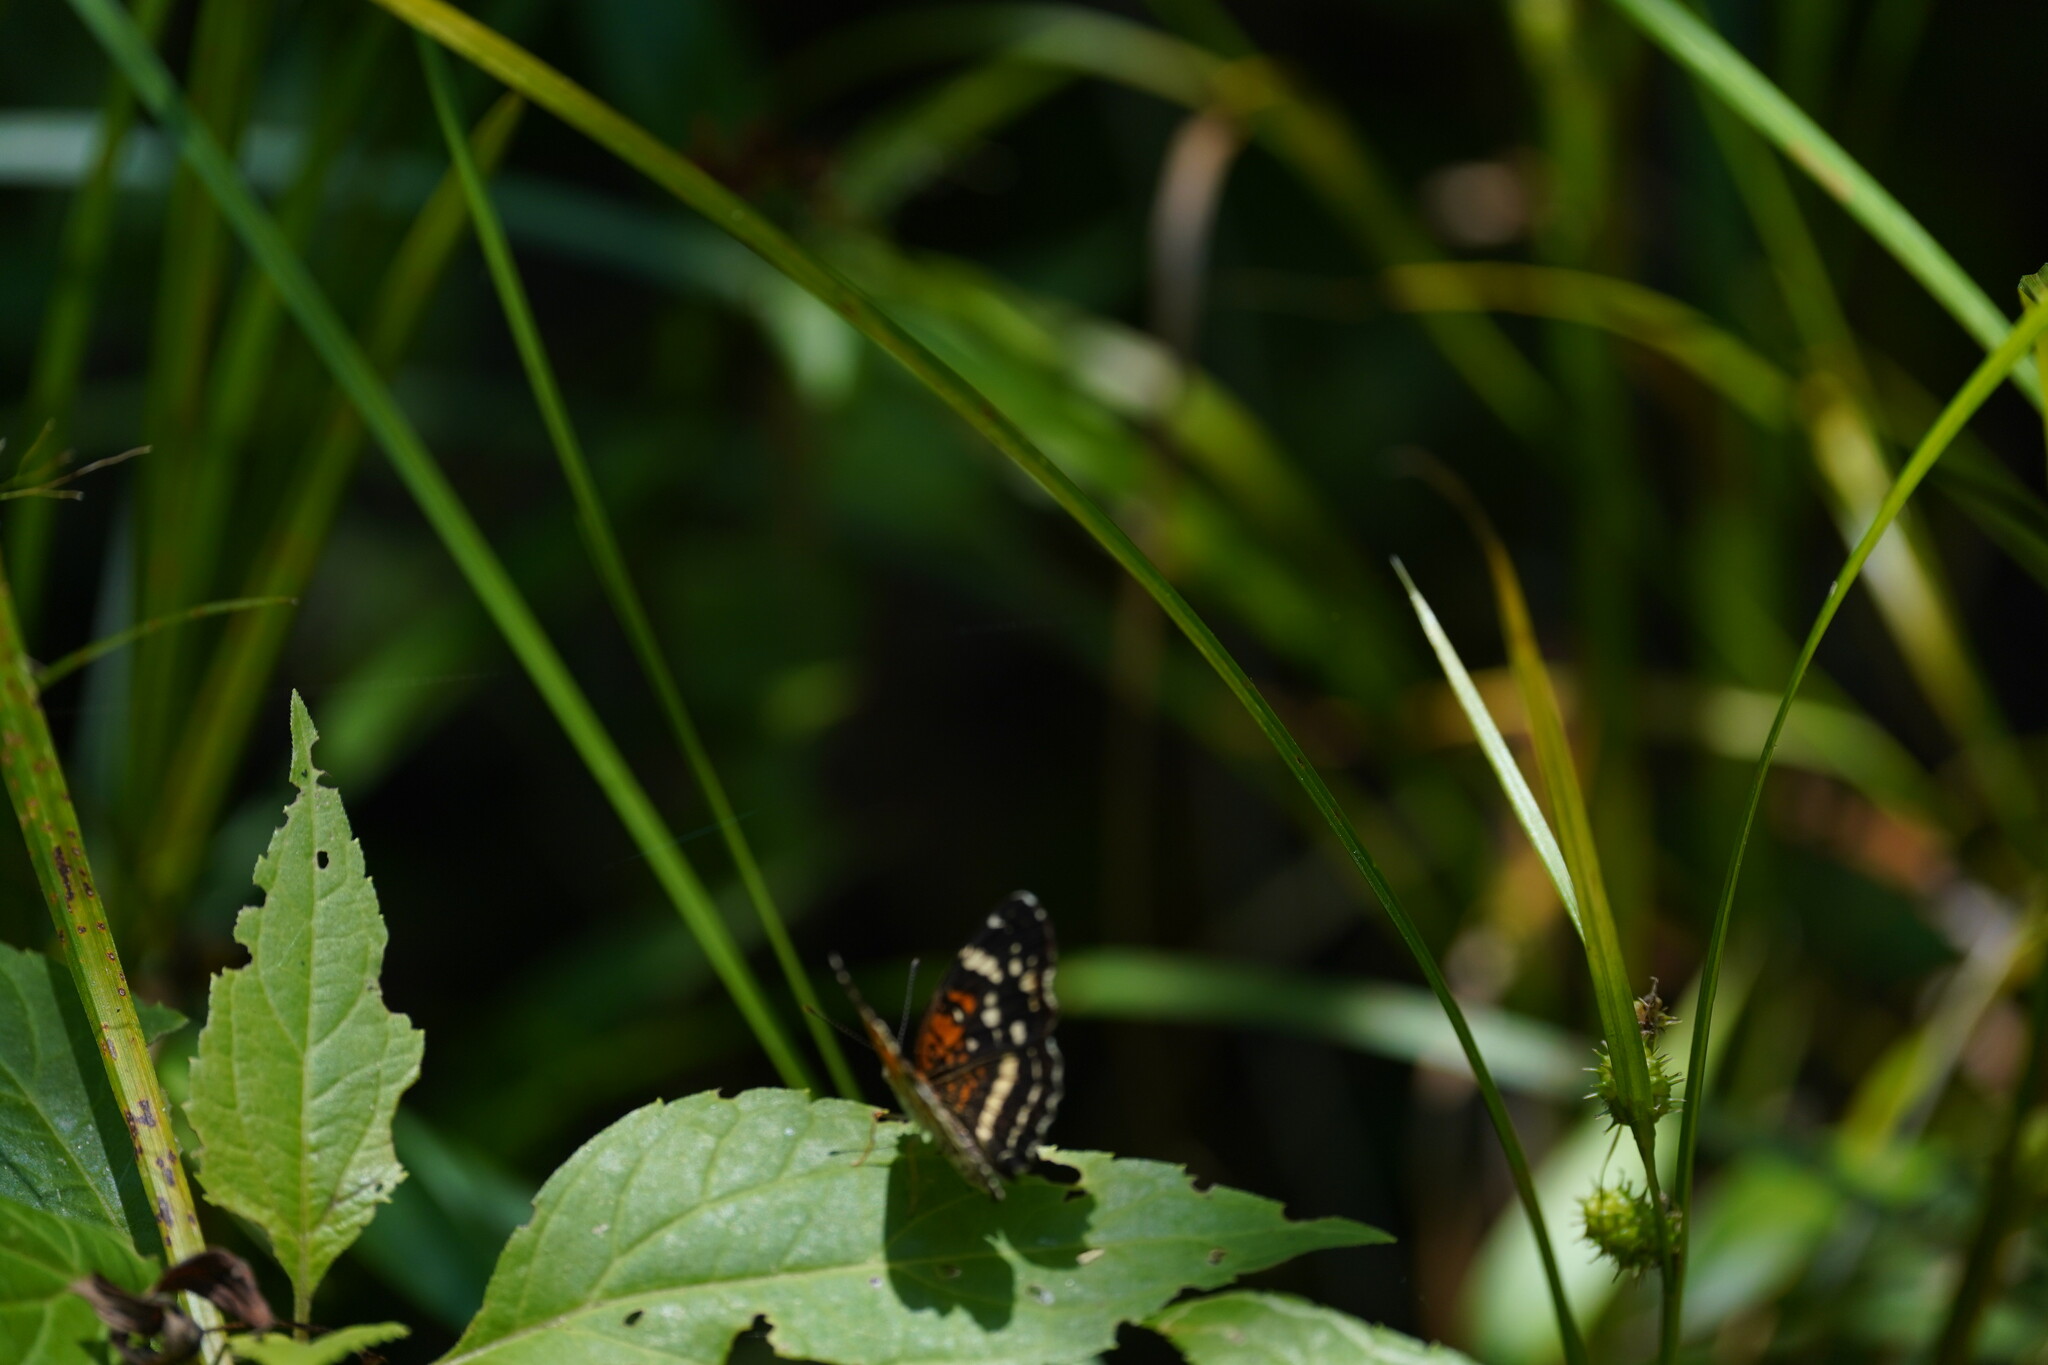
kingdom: Animalia
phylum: Arthropoda
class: Insecta
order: Lepidoptera
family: Nymphalidae
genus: Anthanassa
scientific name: Anthanassa taxana
